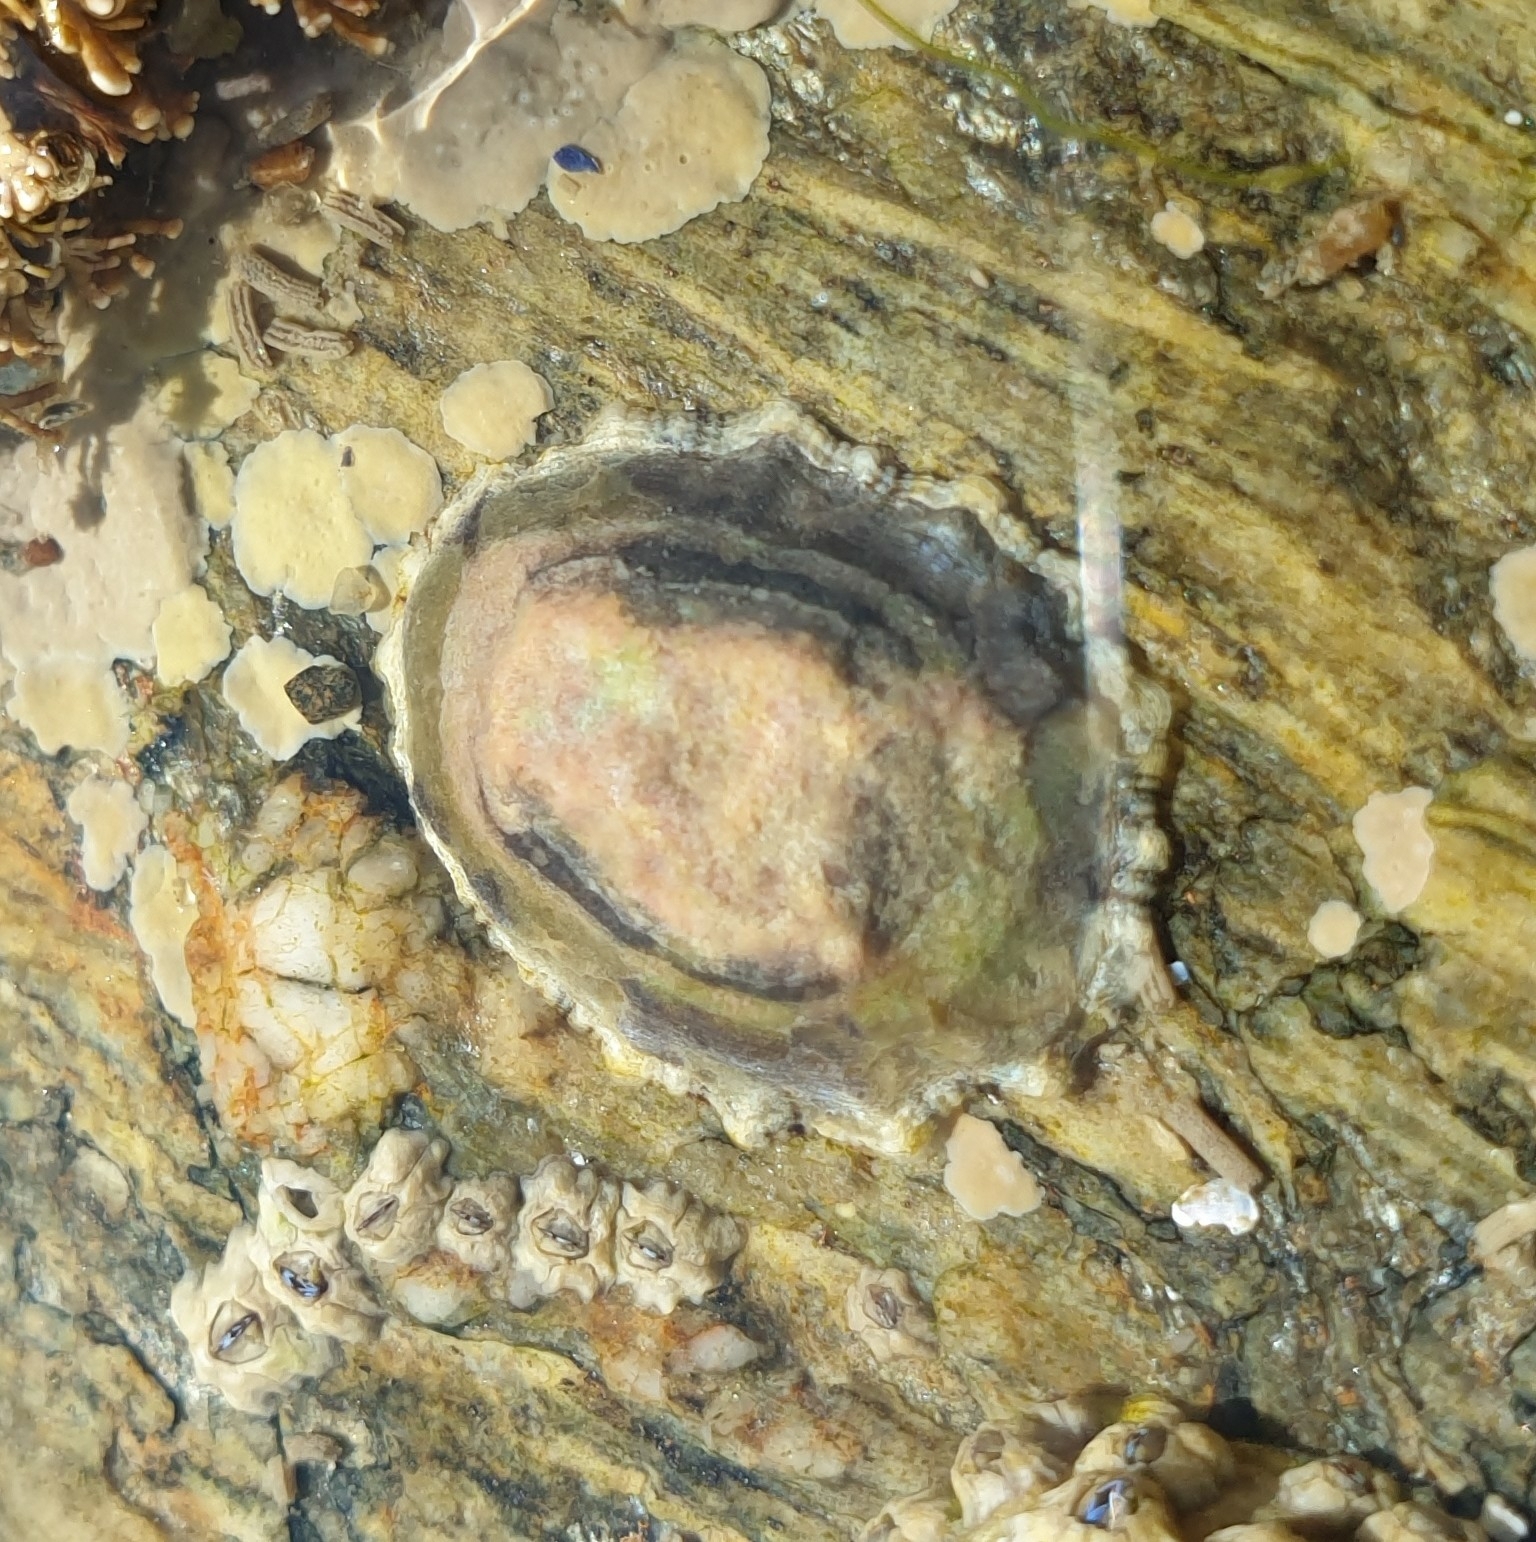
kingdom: Animalia
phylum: Mollusca
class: Gastropoda
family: Patellidae
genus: Patella
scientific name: Patella vulgata
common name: Common limpet
